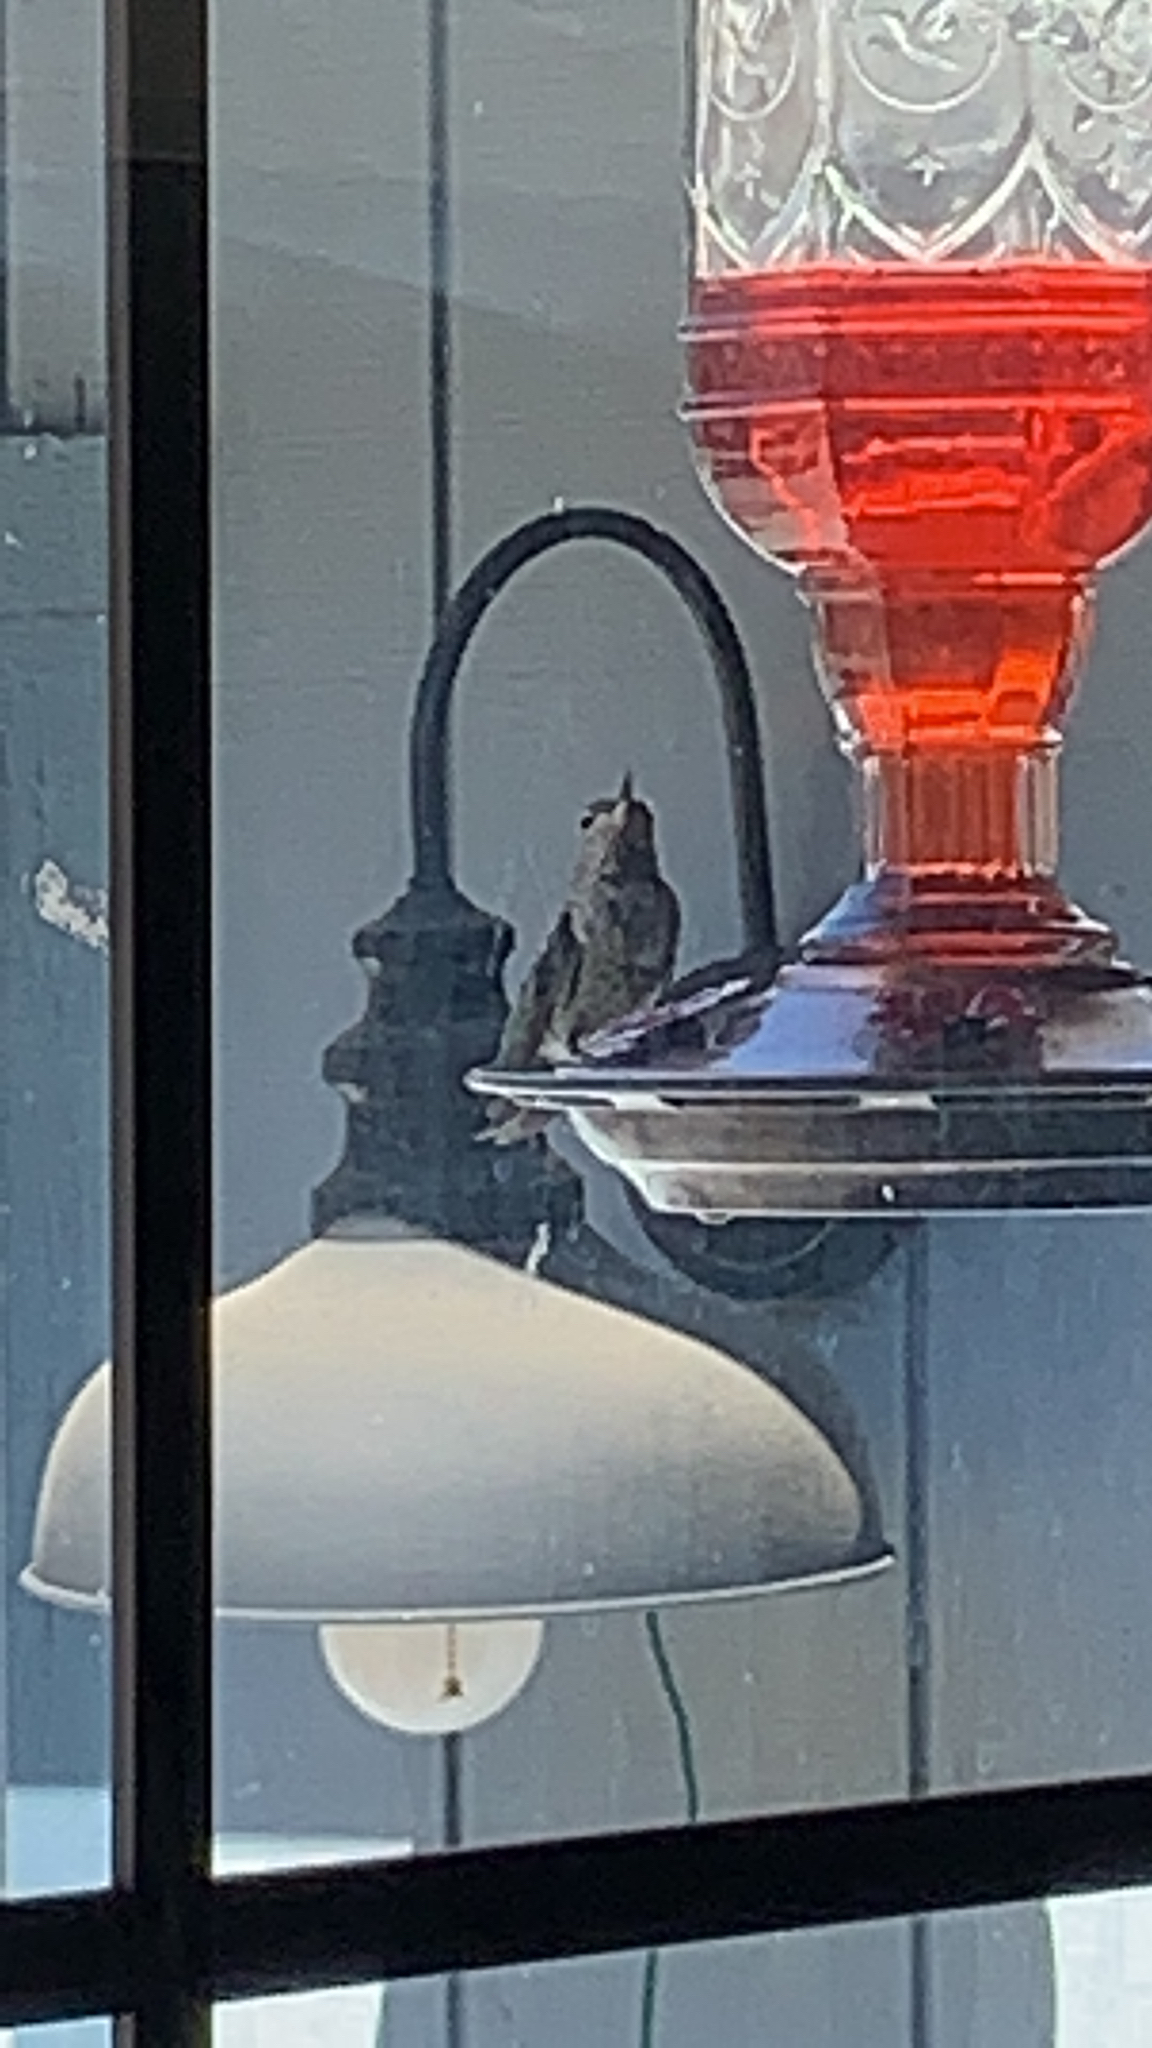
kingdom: Animalia
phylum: Chordata
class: Aves
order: Apodiformes
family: Trochilidae
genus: Calypte
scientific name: Calypte anna
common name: Anna's hummingbird
